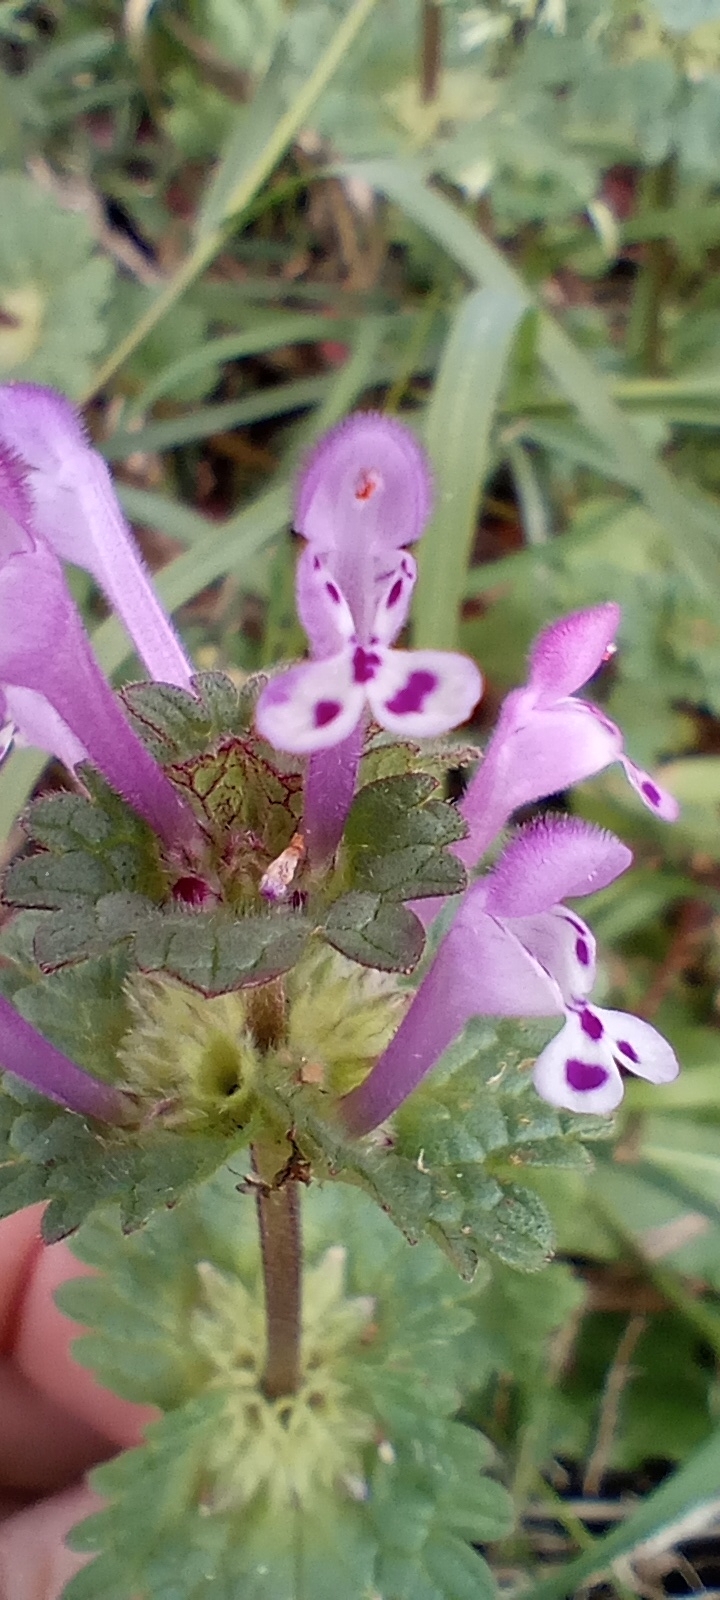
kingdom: Plantae
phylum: Tracheophyta
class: Magnoliopsida
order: Lamiales
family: Lamiaceae
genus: Lamium
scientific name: Lamium amplexicaule
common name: Henbit dead-nettle
